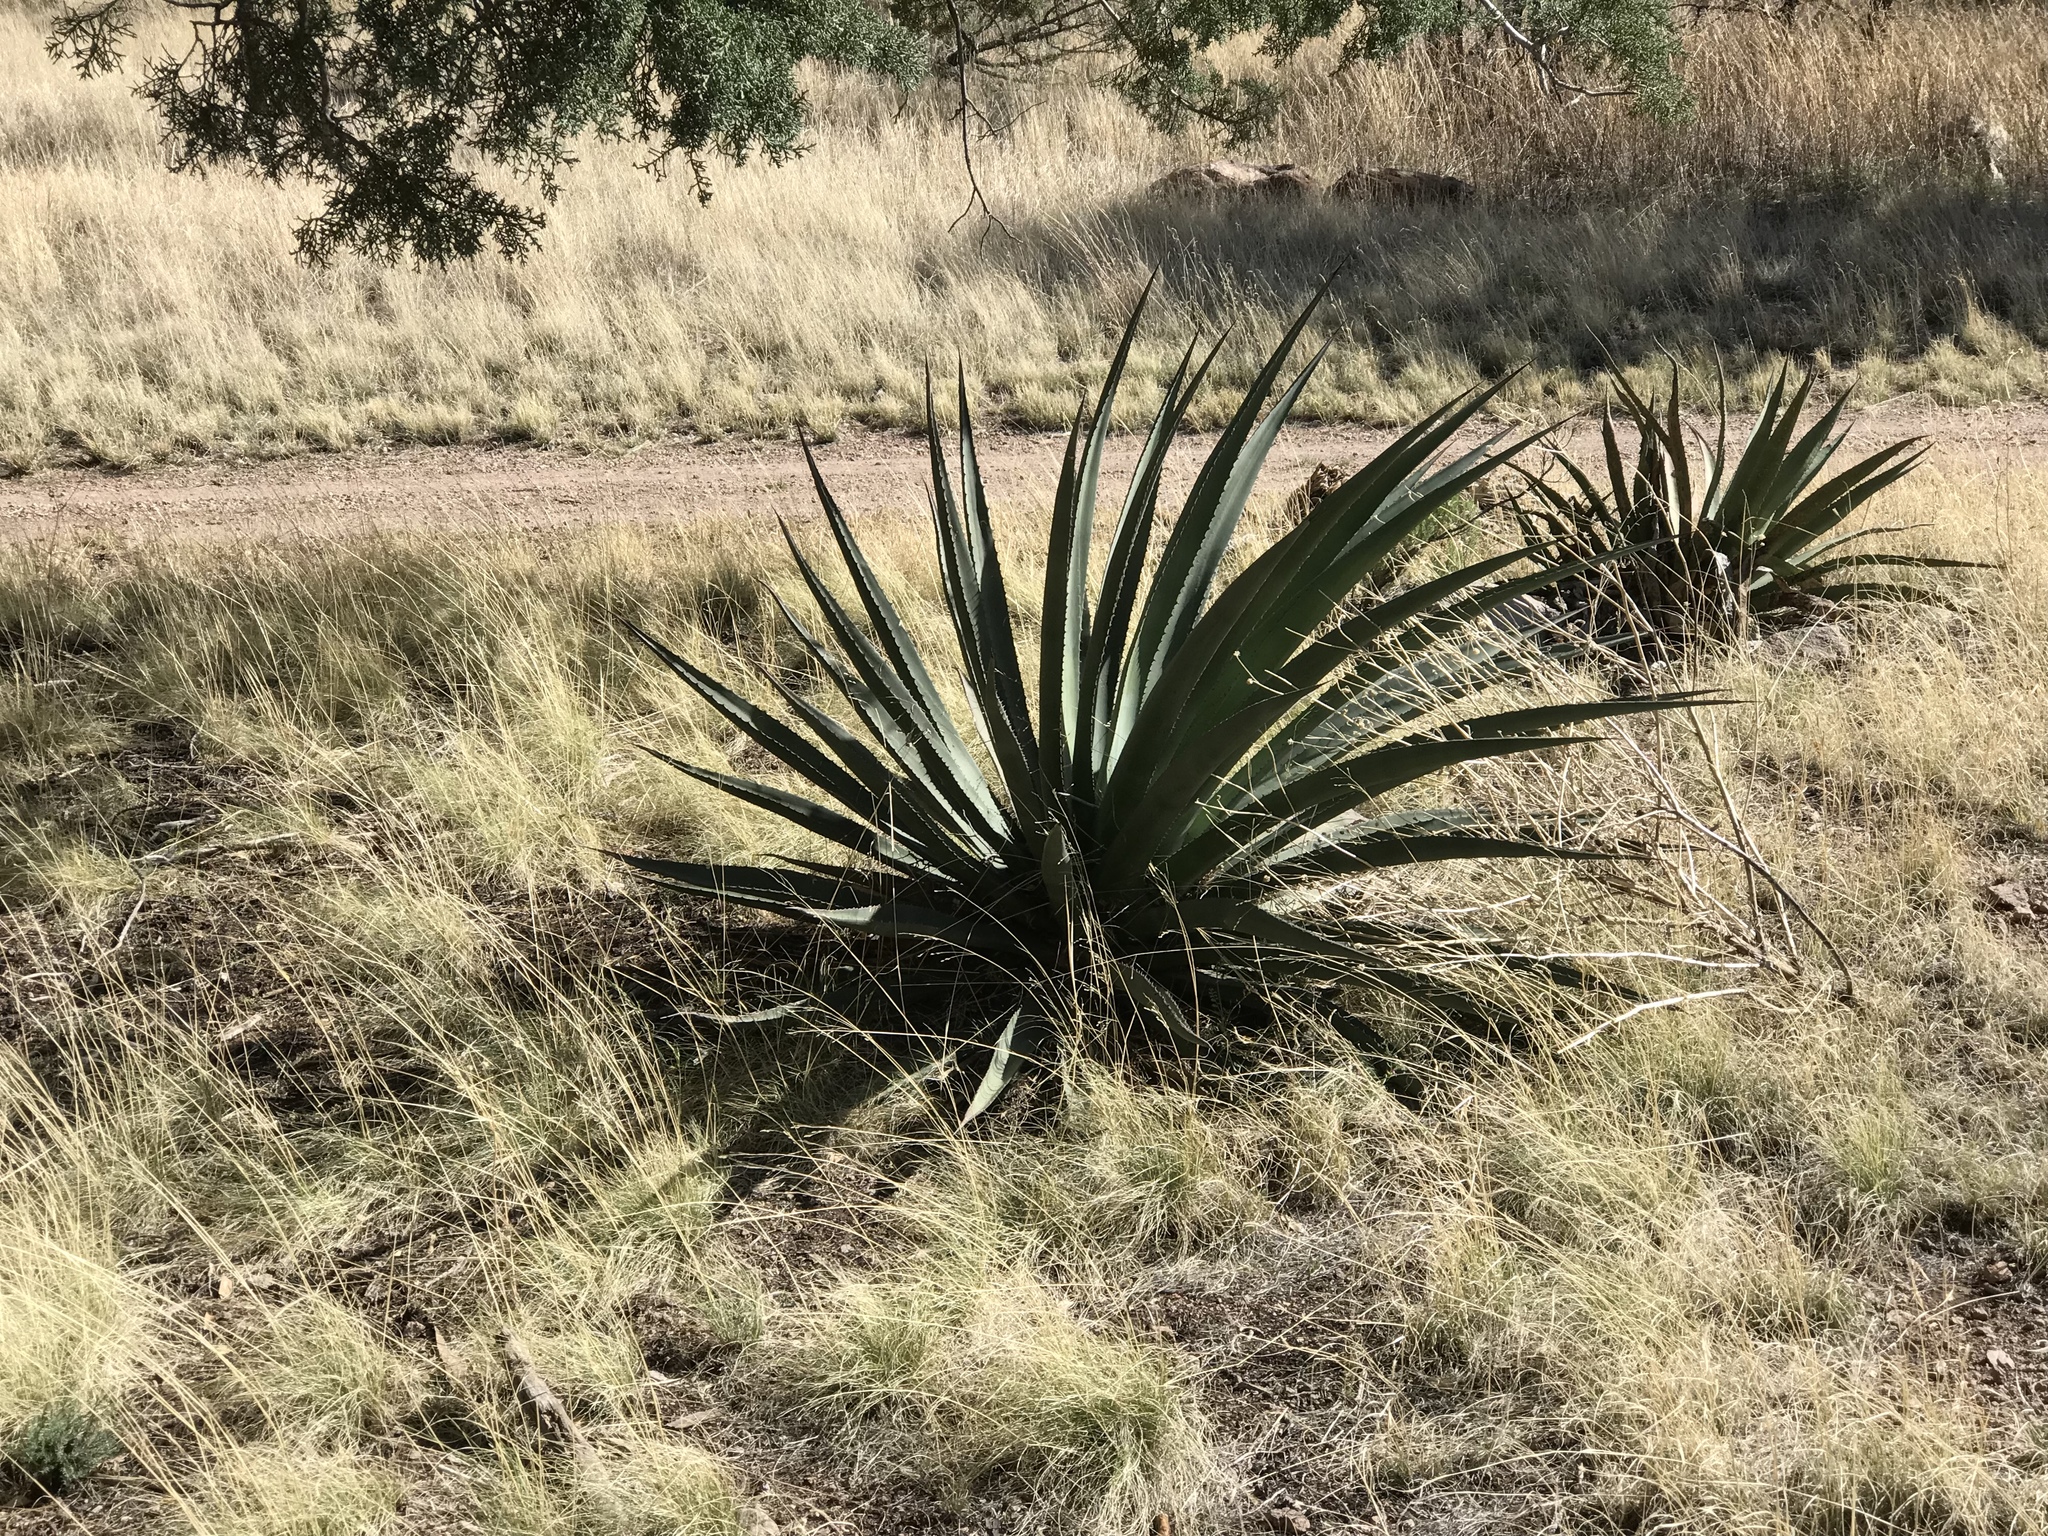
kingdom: Plantae
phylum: Tracheophyta
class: Liliopsida
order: Asparagales
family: Asparagaceae
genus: Agave
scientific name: Agave palmeri
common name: Palmer agave
